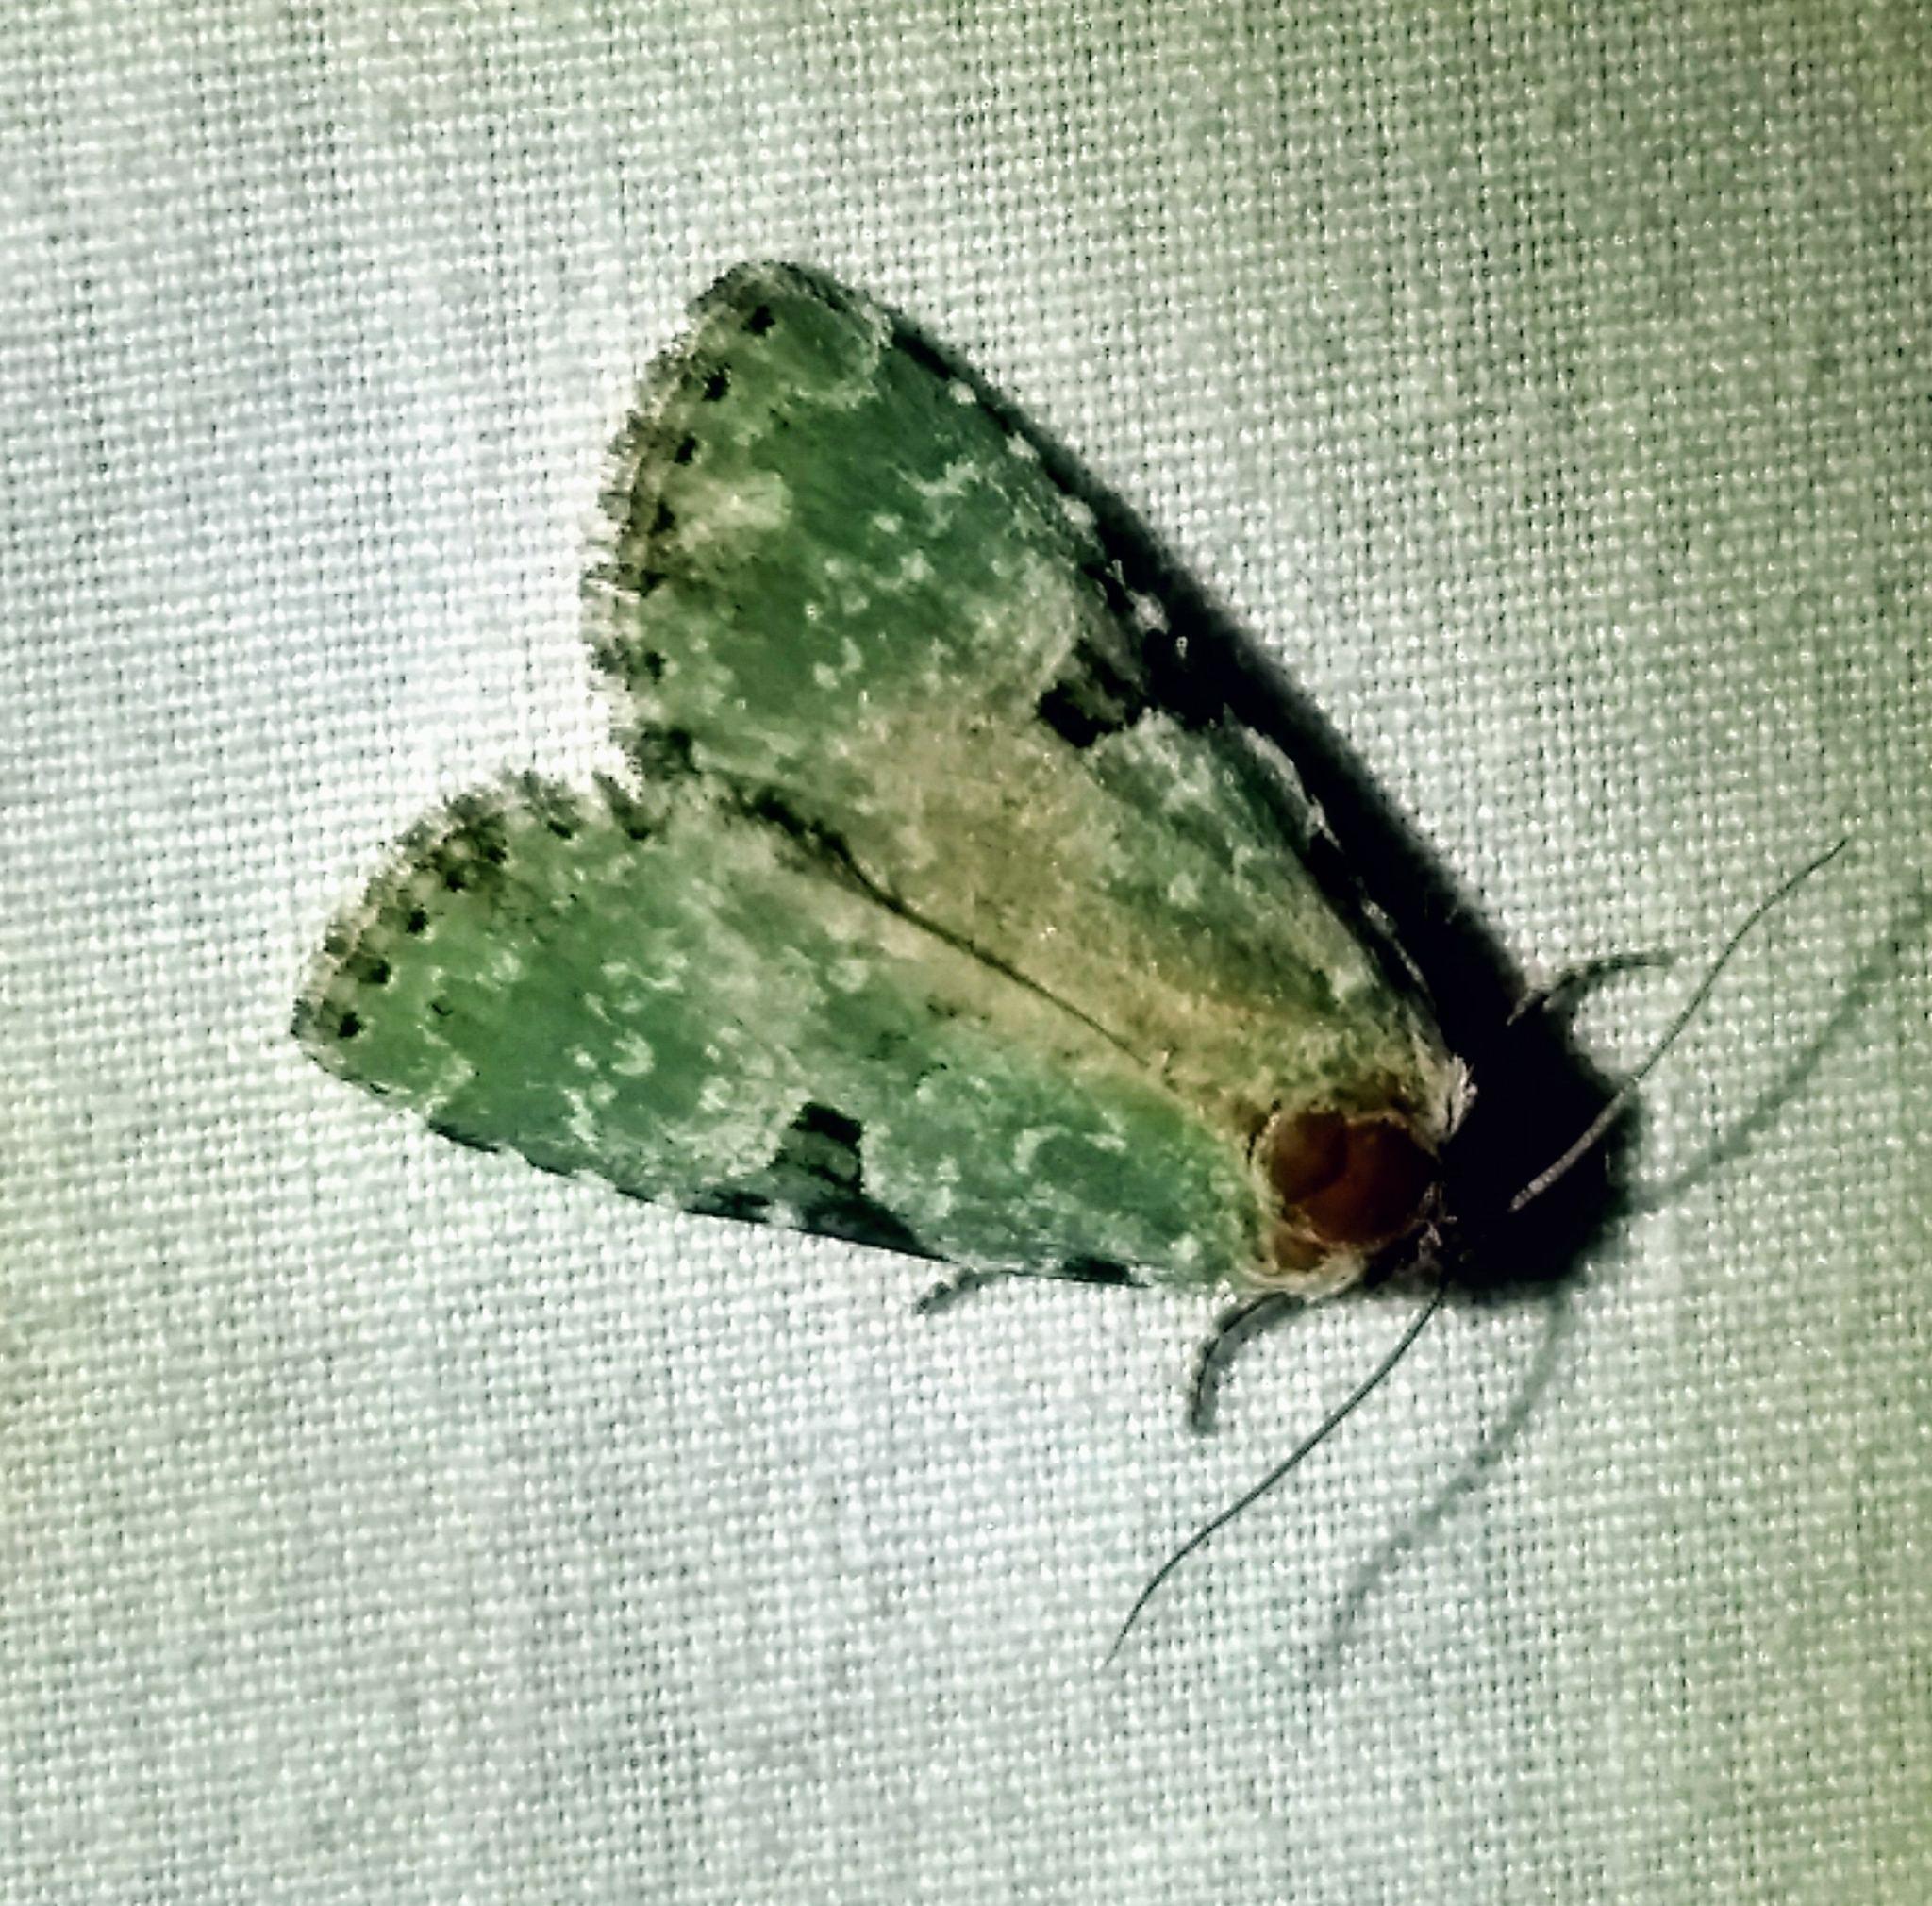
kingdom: Animalia
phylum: Arthropoda
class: Insecta
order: Lepidoptera
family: Noctuidae
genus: Leuconycta
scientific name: Leuconycta diphteroides
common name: Green leuconycta moth
